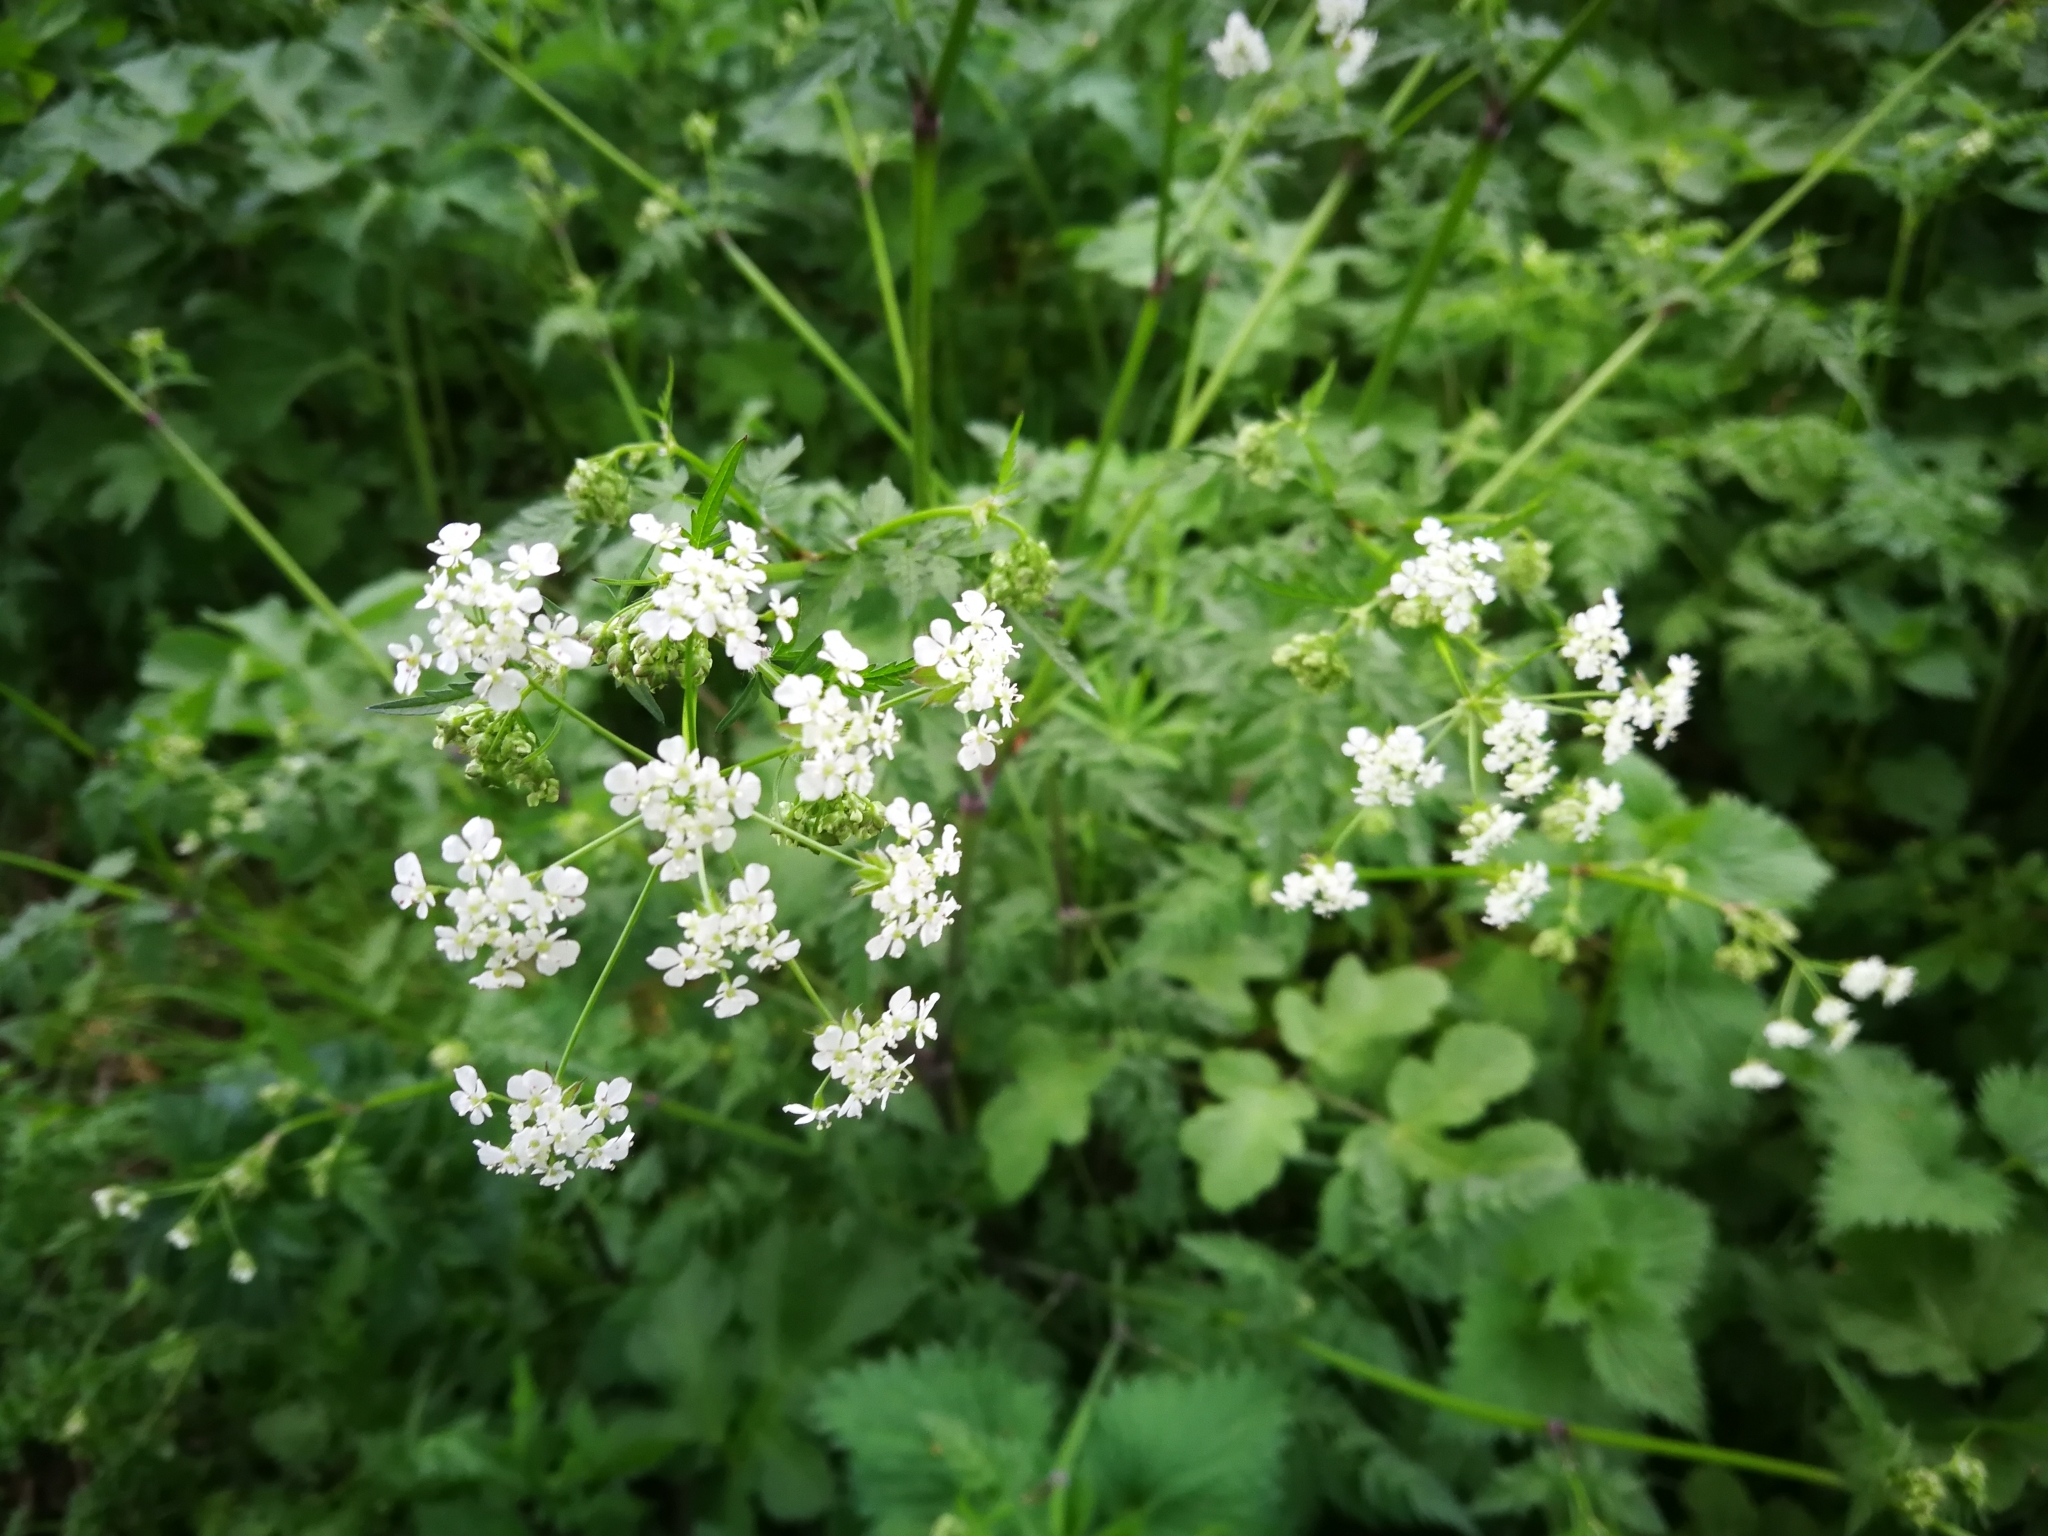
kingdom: Plantae
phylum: Tracheophyta
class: Magnoliopsida
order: Apiales
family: Apiaceae
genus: Anthriscus
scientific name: Anthriscus sylvestris
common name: Cow parsley
